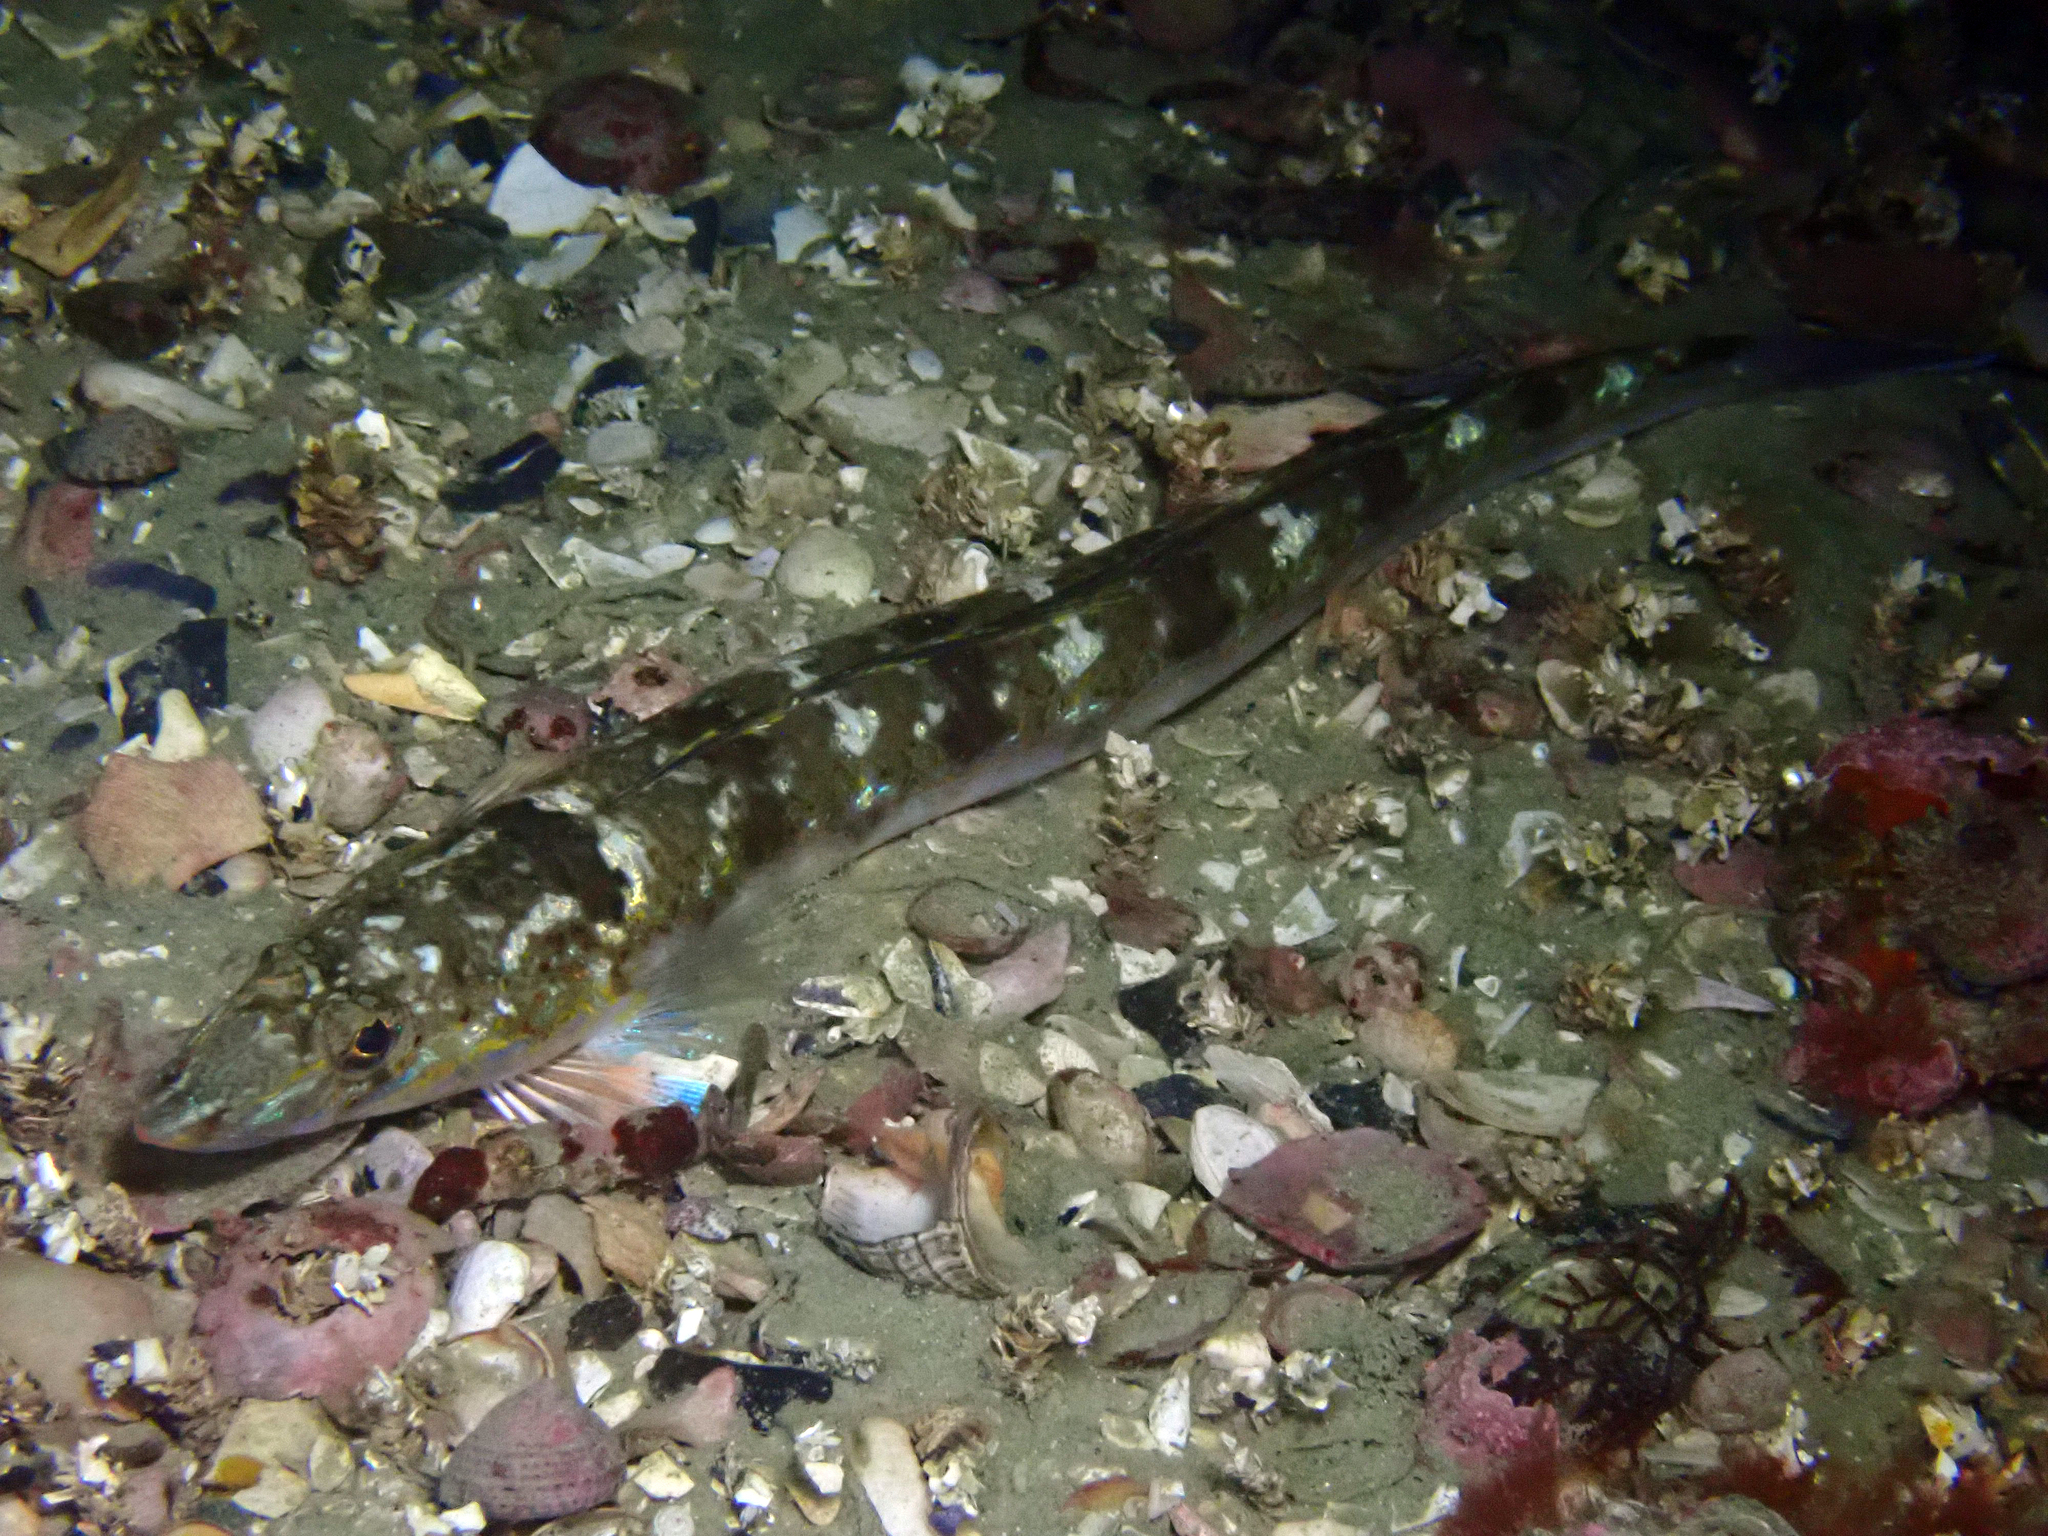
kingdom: Animalia
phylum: Chordata
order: Perciformes
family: Percophidae
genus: Hemerocoetes
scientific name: Hemerocoetes monopterygius
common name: Opalfish
